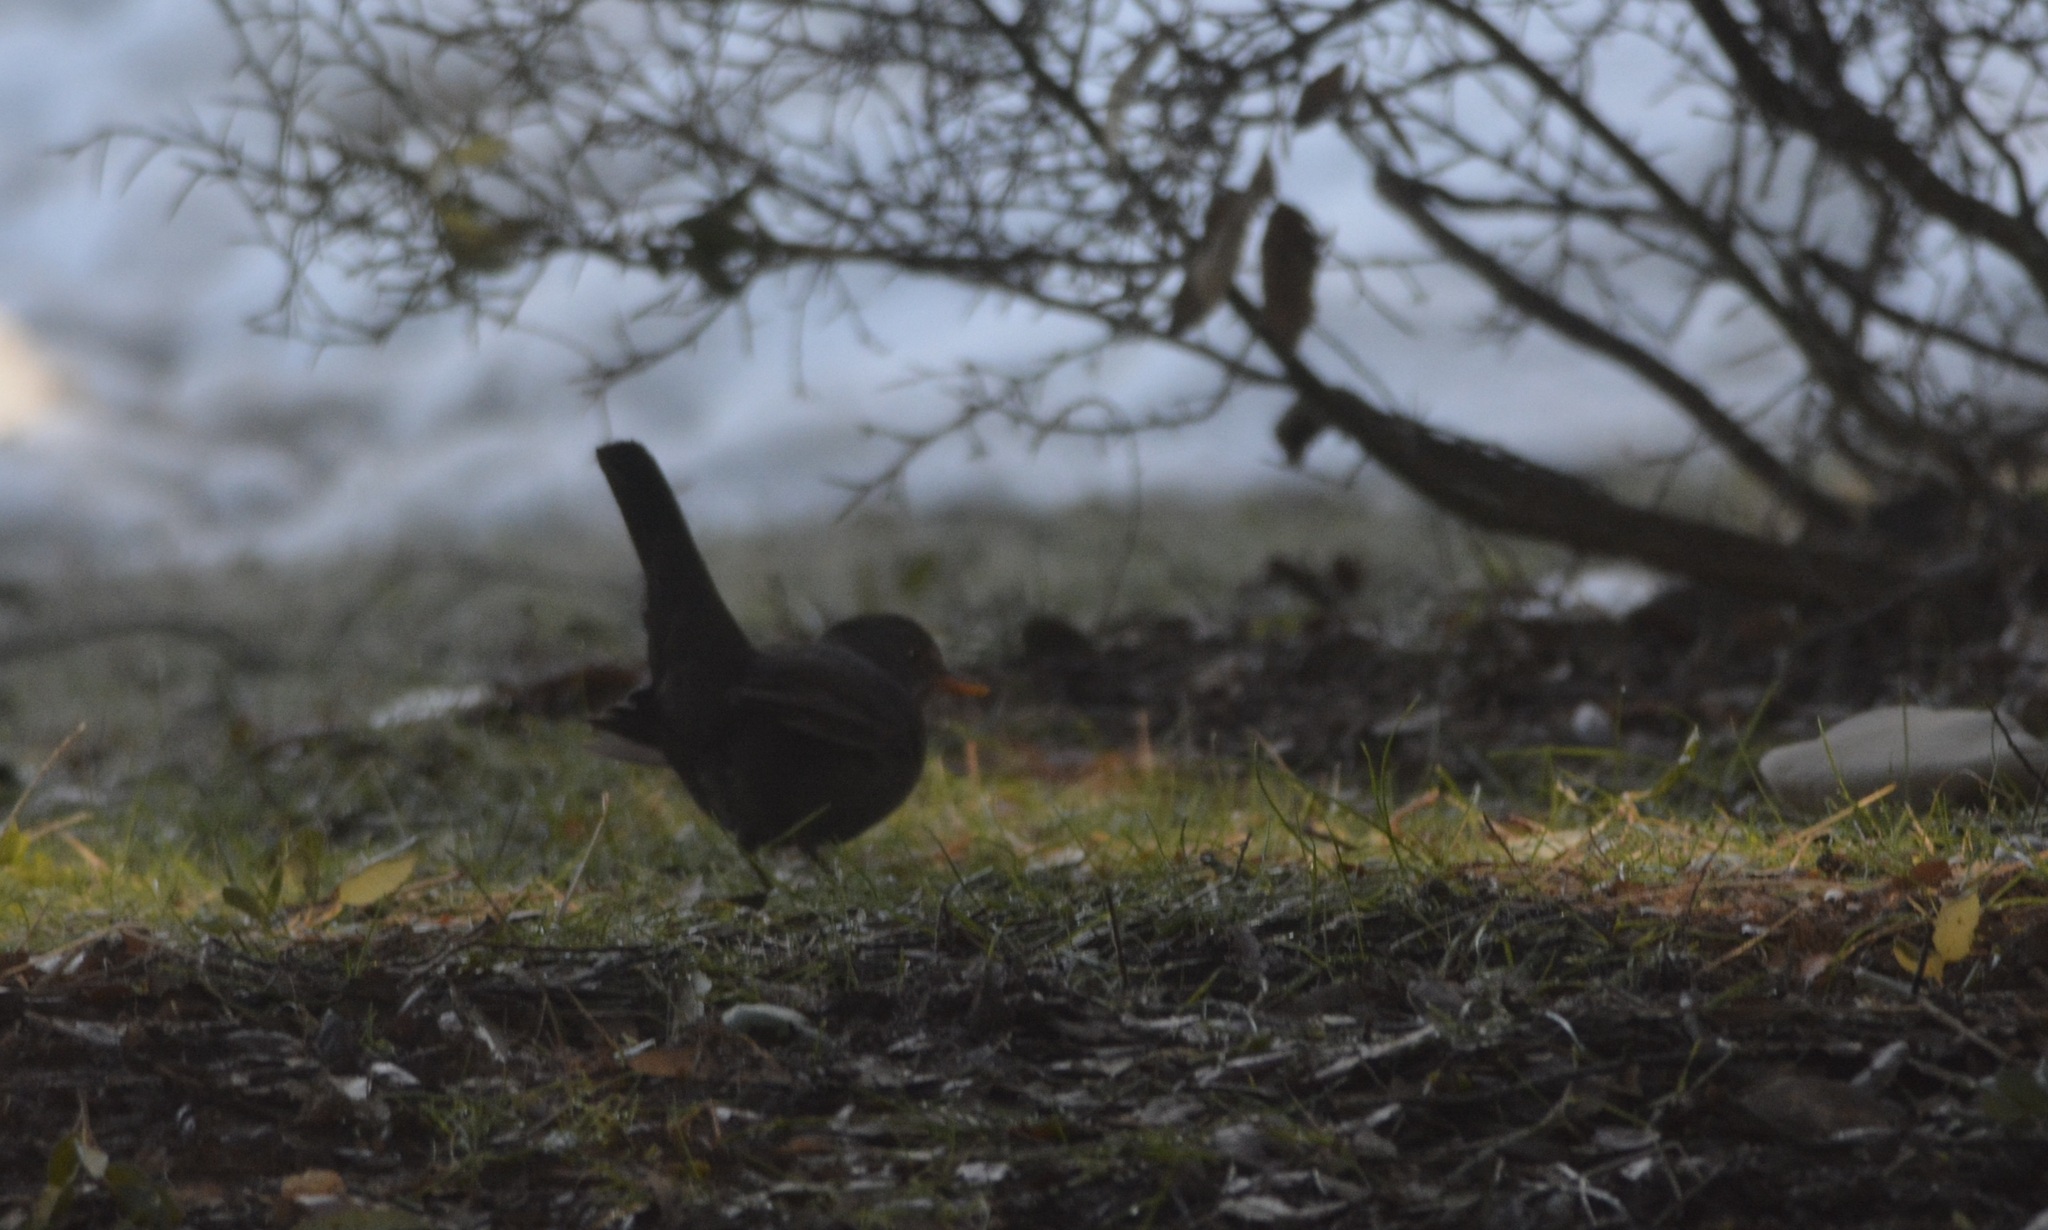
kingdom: Animalia
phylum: Chordata
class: Aves
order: Passeriformes
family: Turdidae
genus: Turdus
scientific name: Turdus merula
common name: Common blackbird
